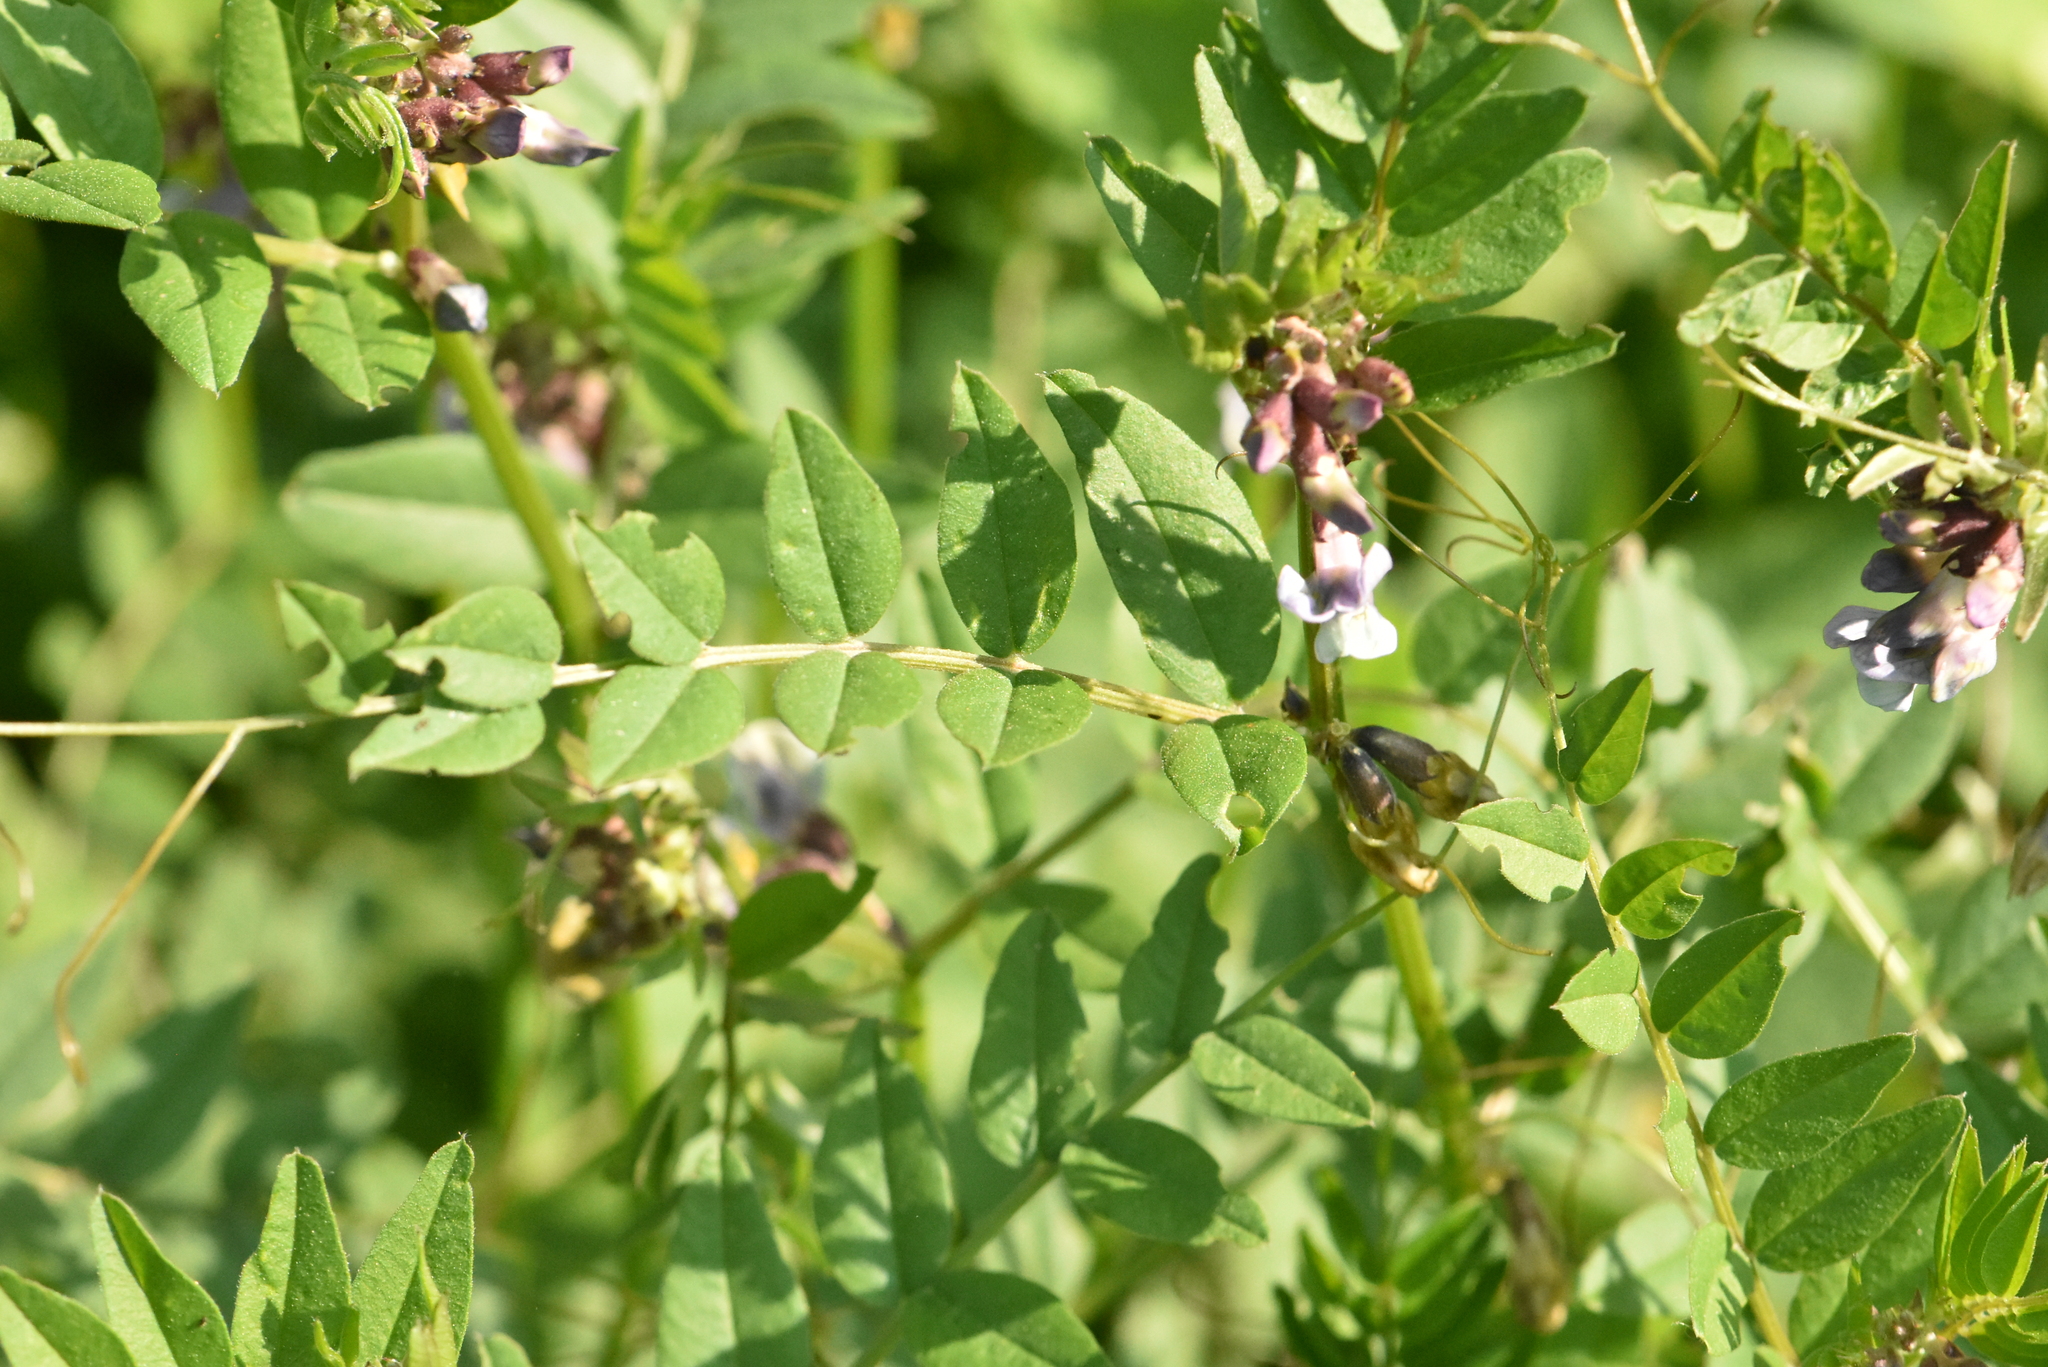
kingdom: Plantae
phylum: Tracheophyta
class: Magnoliopsida
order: Fabales
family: Fabaceae
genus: Vicia
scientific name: Vicia sepium
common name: Bush vetch
